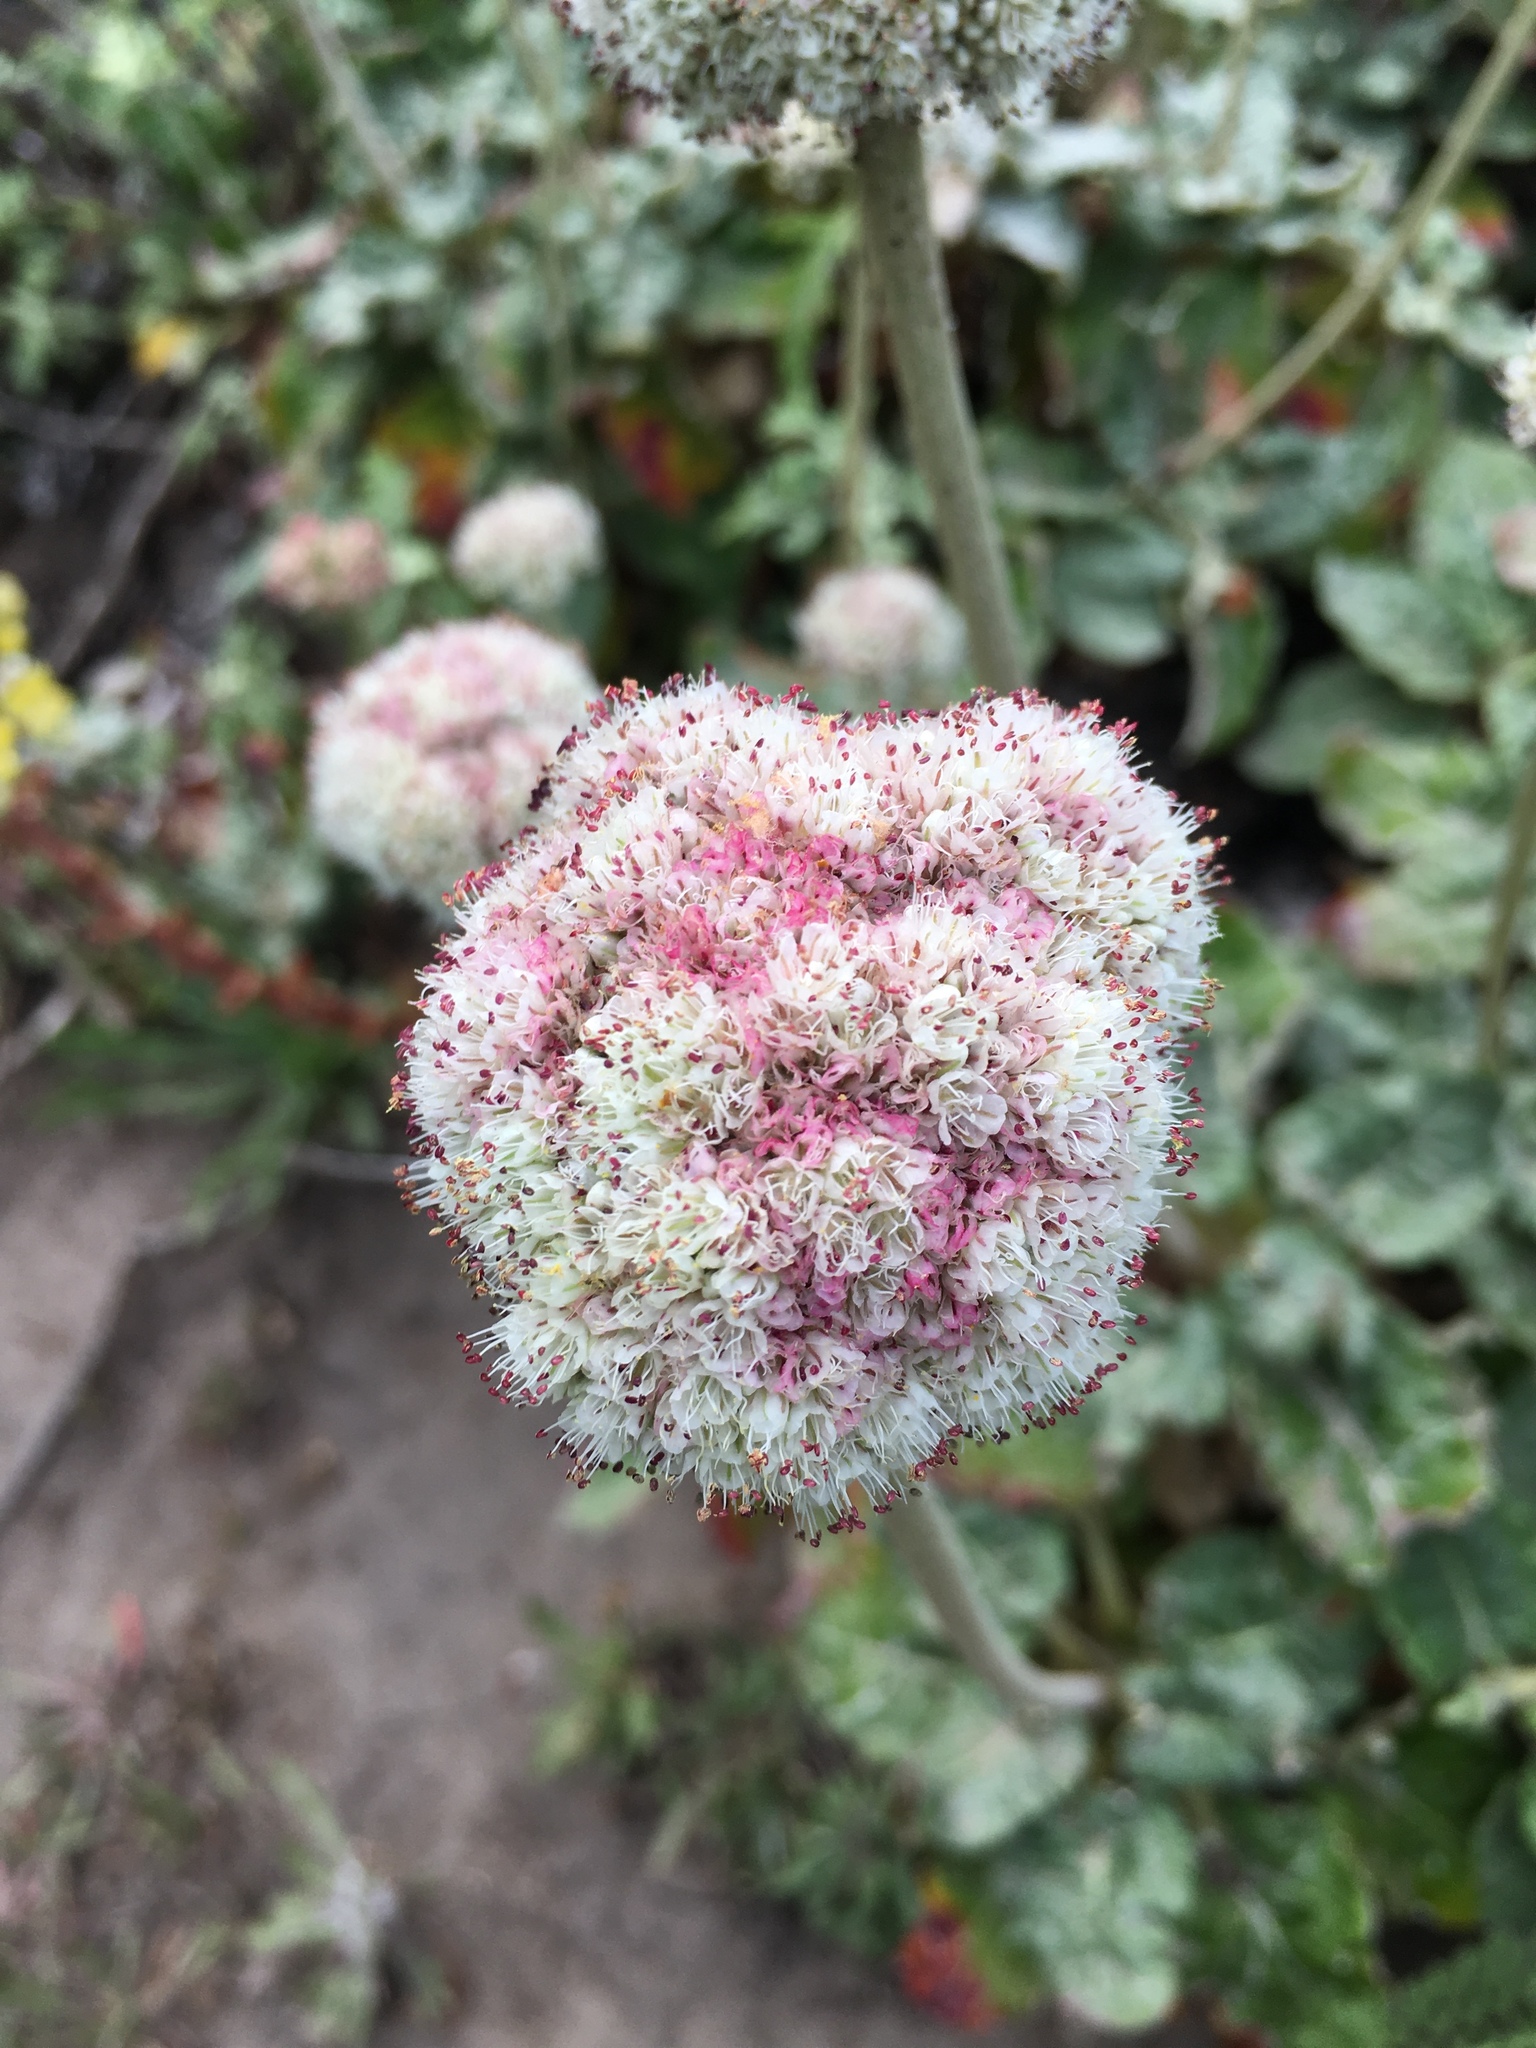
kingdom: Plantae
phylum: Tracheophyta
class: Magnoliopsida
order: Caryophyllales
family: Polygonaceae
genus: Eriogonum
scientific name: Eriogonum latifolium
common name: Seaside wild buckwheat
